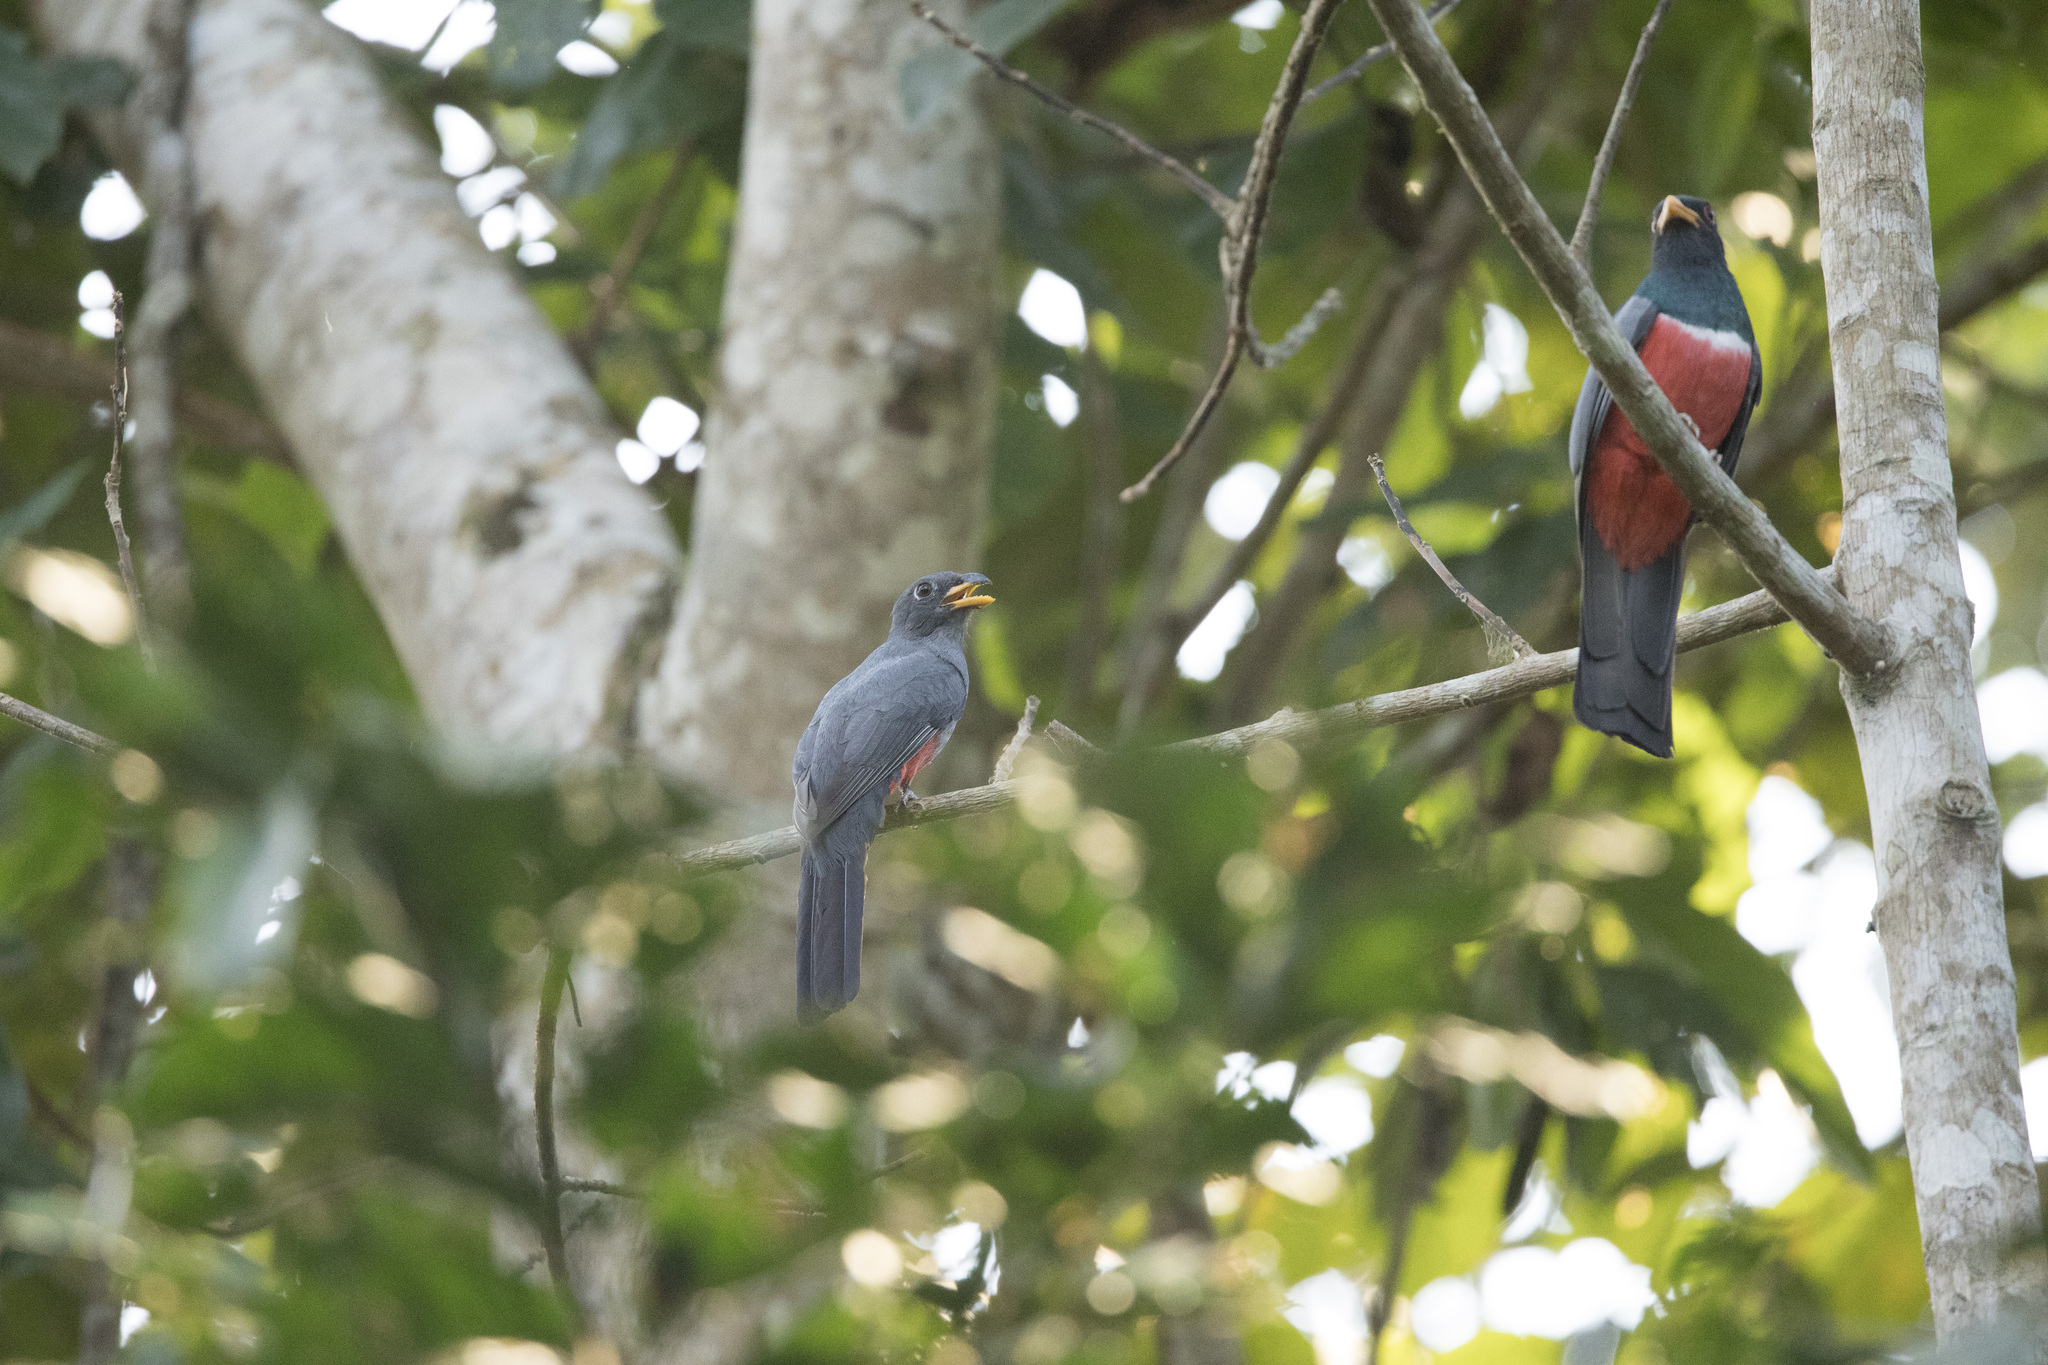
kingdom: Animalia
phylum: Chordata
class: Aves
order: Trogoniformes
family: Trogonidae
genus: Trogon
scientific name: Trogon melanurus
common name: Black-tailed trogon
